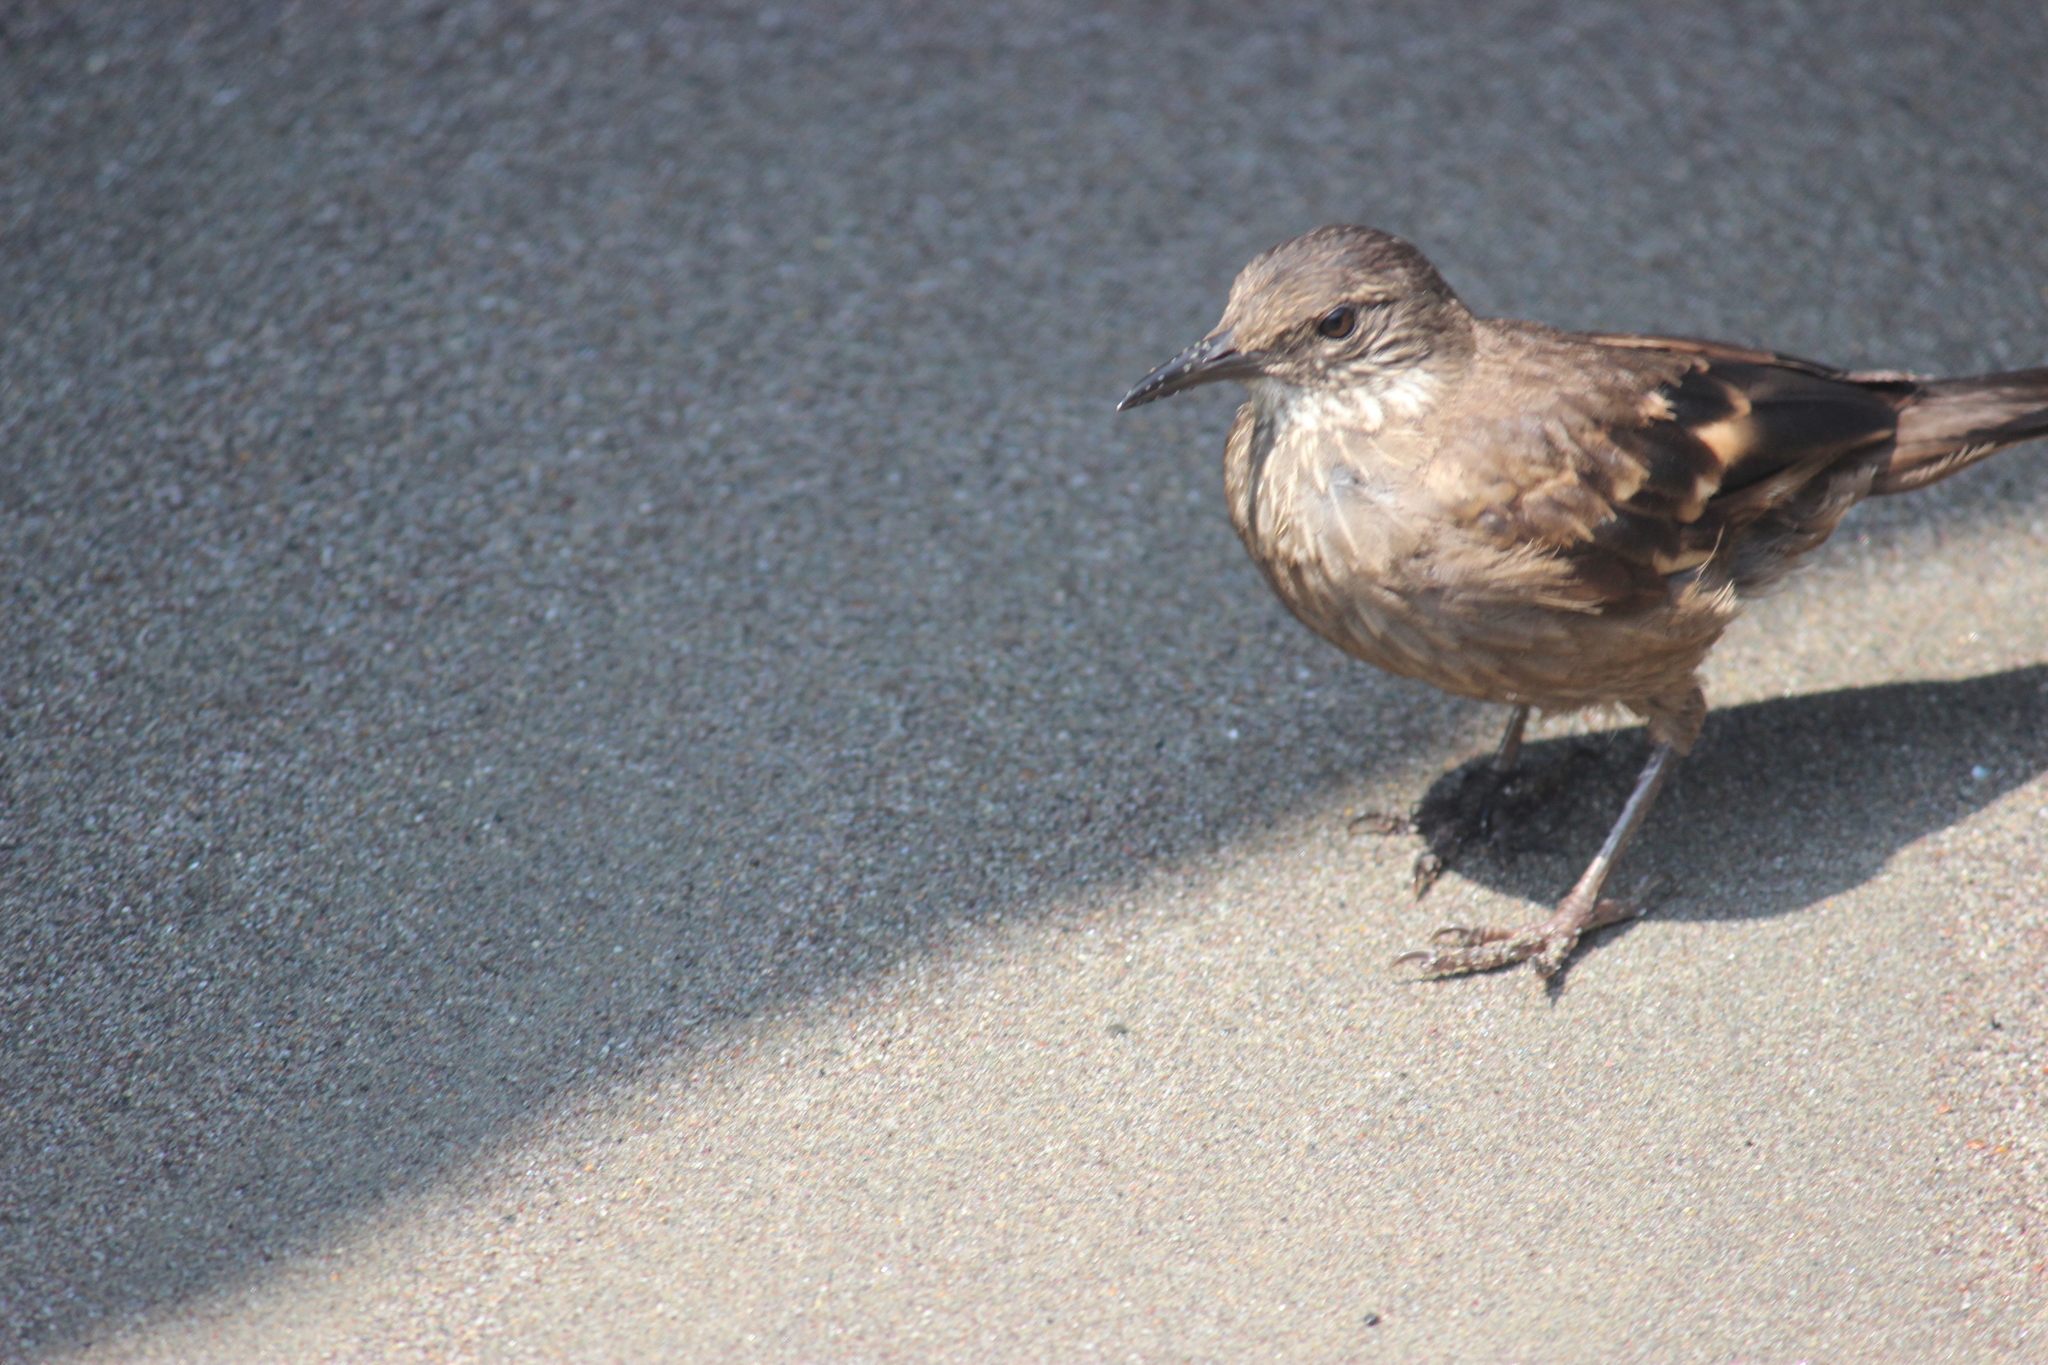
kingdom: Animalia
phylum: Chordata
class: Aves
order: Passeriformes
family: Furnariidae
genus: Cinclodes
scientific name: Cinclodes taczanowskii
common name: Peruvian seaside cinclodes
